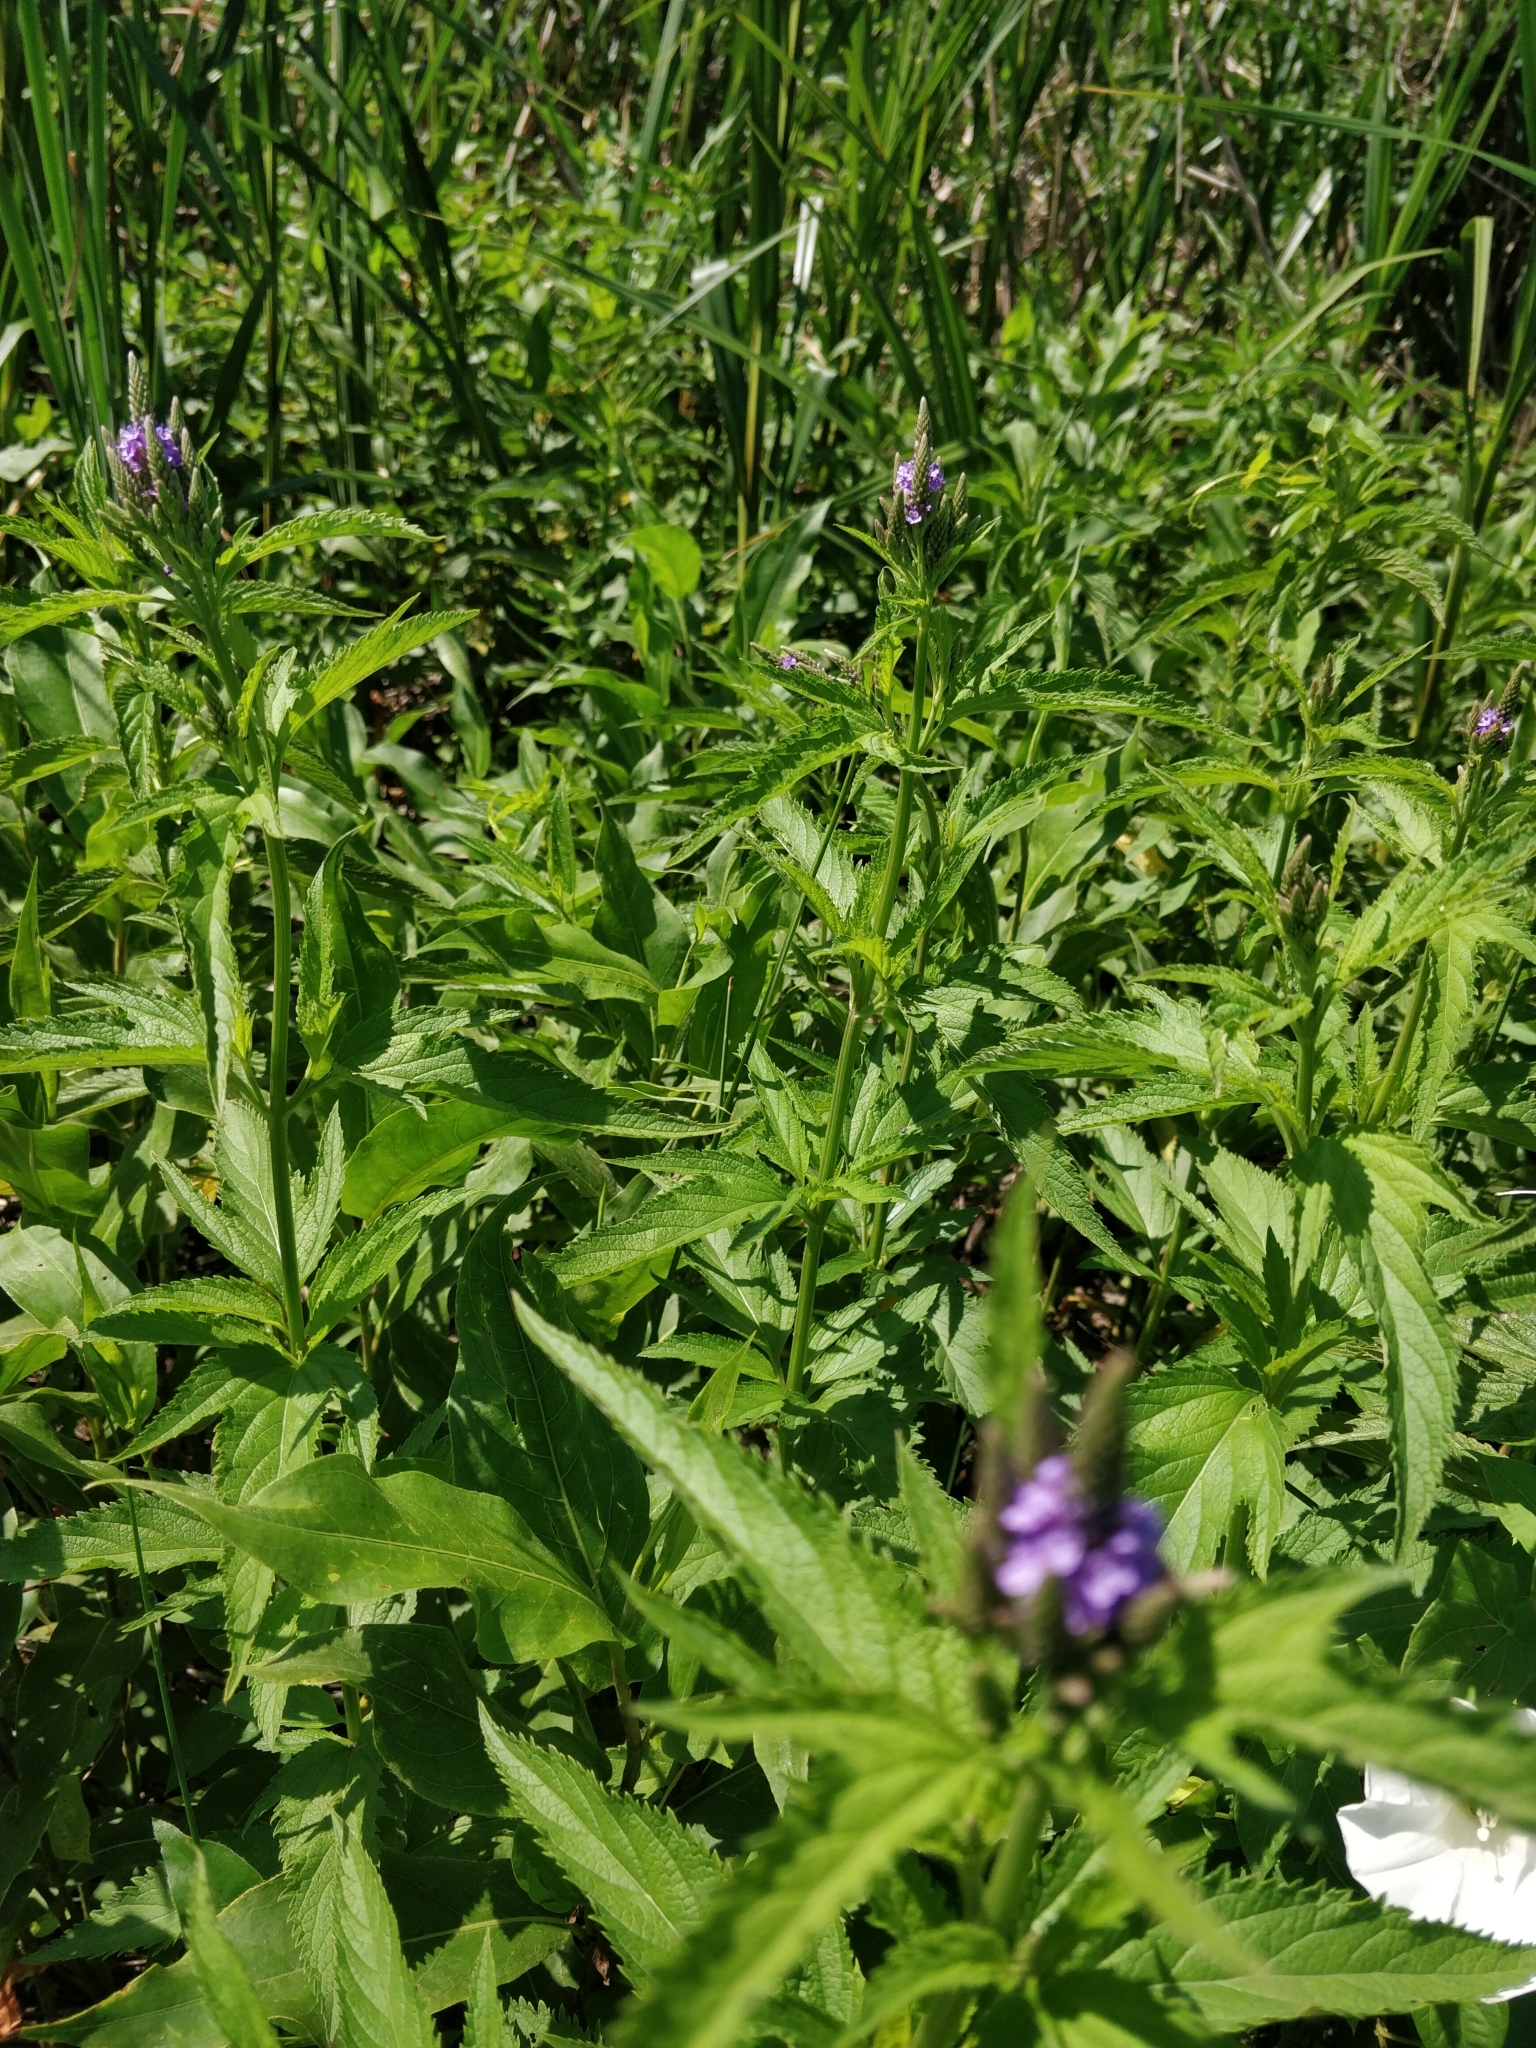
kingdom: Plantae
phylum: Tracheophyta
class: Magnoliopsida
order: Lamiales
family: Verbenaceae
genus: Verbena
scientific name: Verbena hastata
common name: American blue vervain
